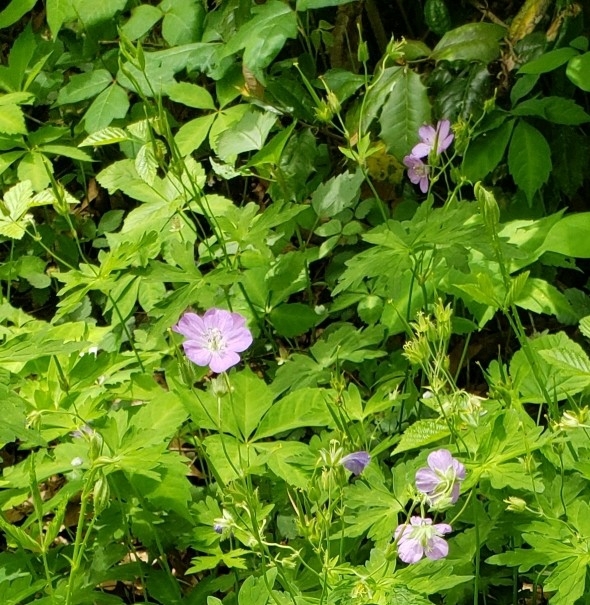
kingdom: Plantae
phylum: Tracheophyta
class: Magnoliopsida
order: Geraniales
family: Geraniaceae
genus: Geranium
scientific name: Geranium maculatum
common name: Spotted geranium
